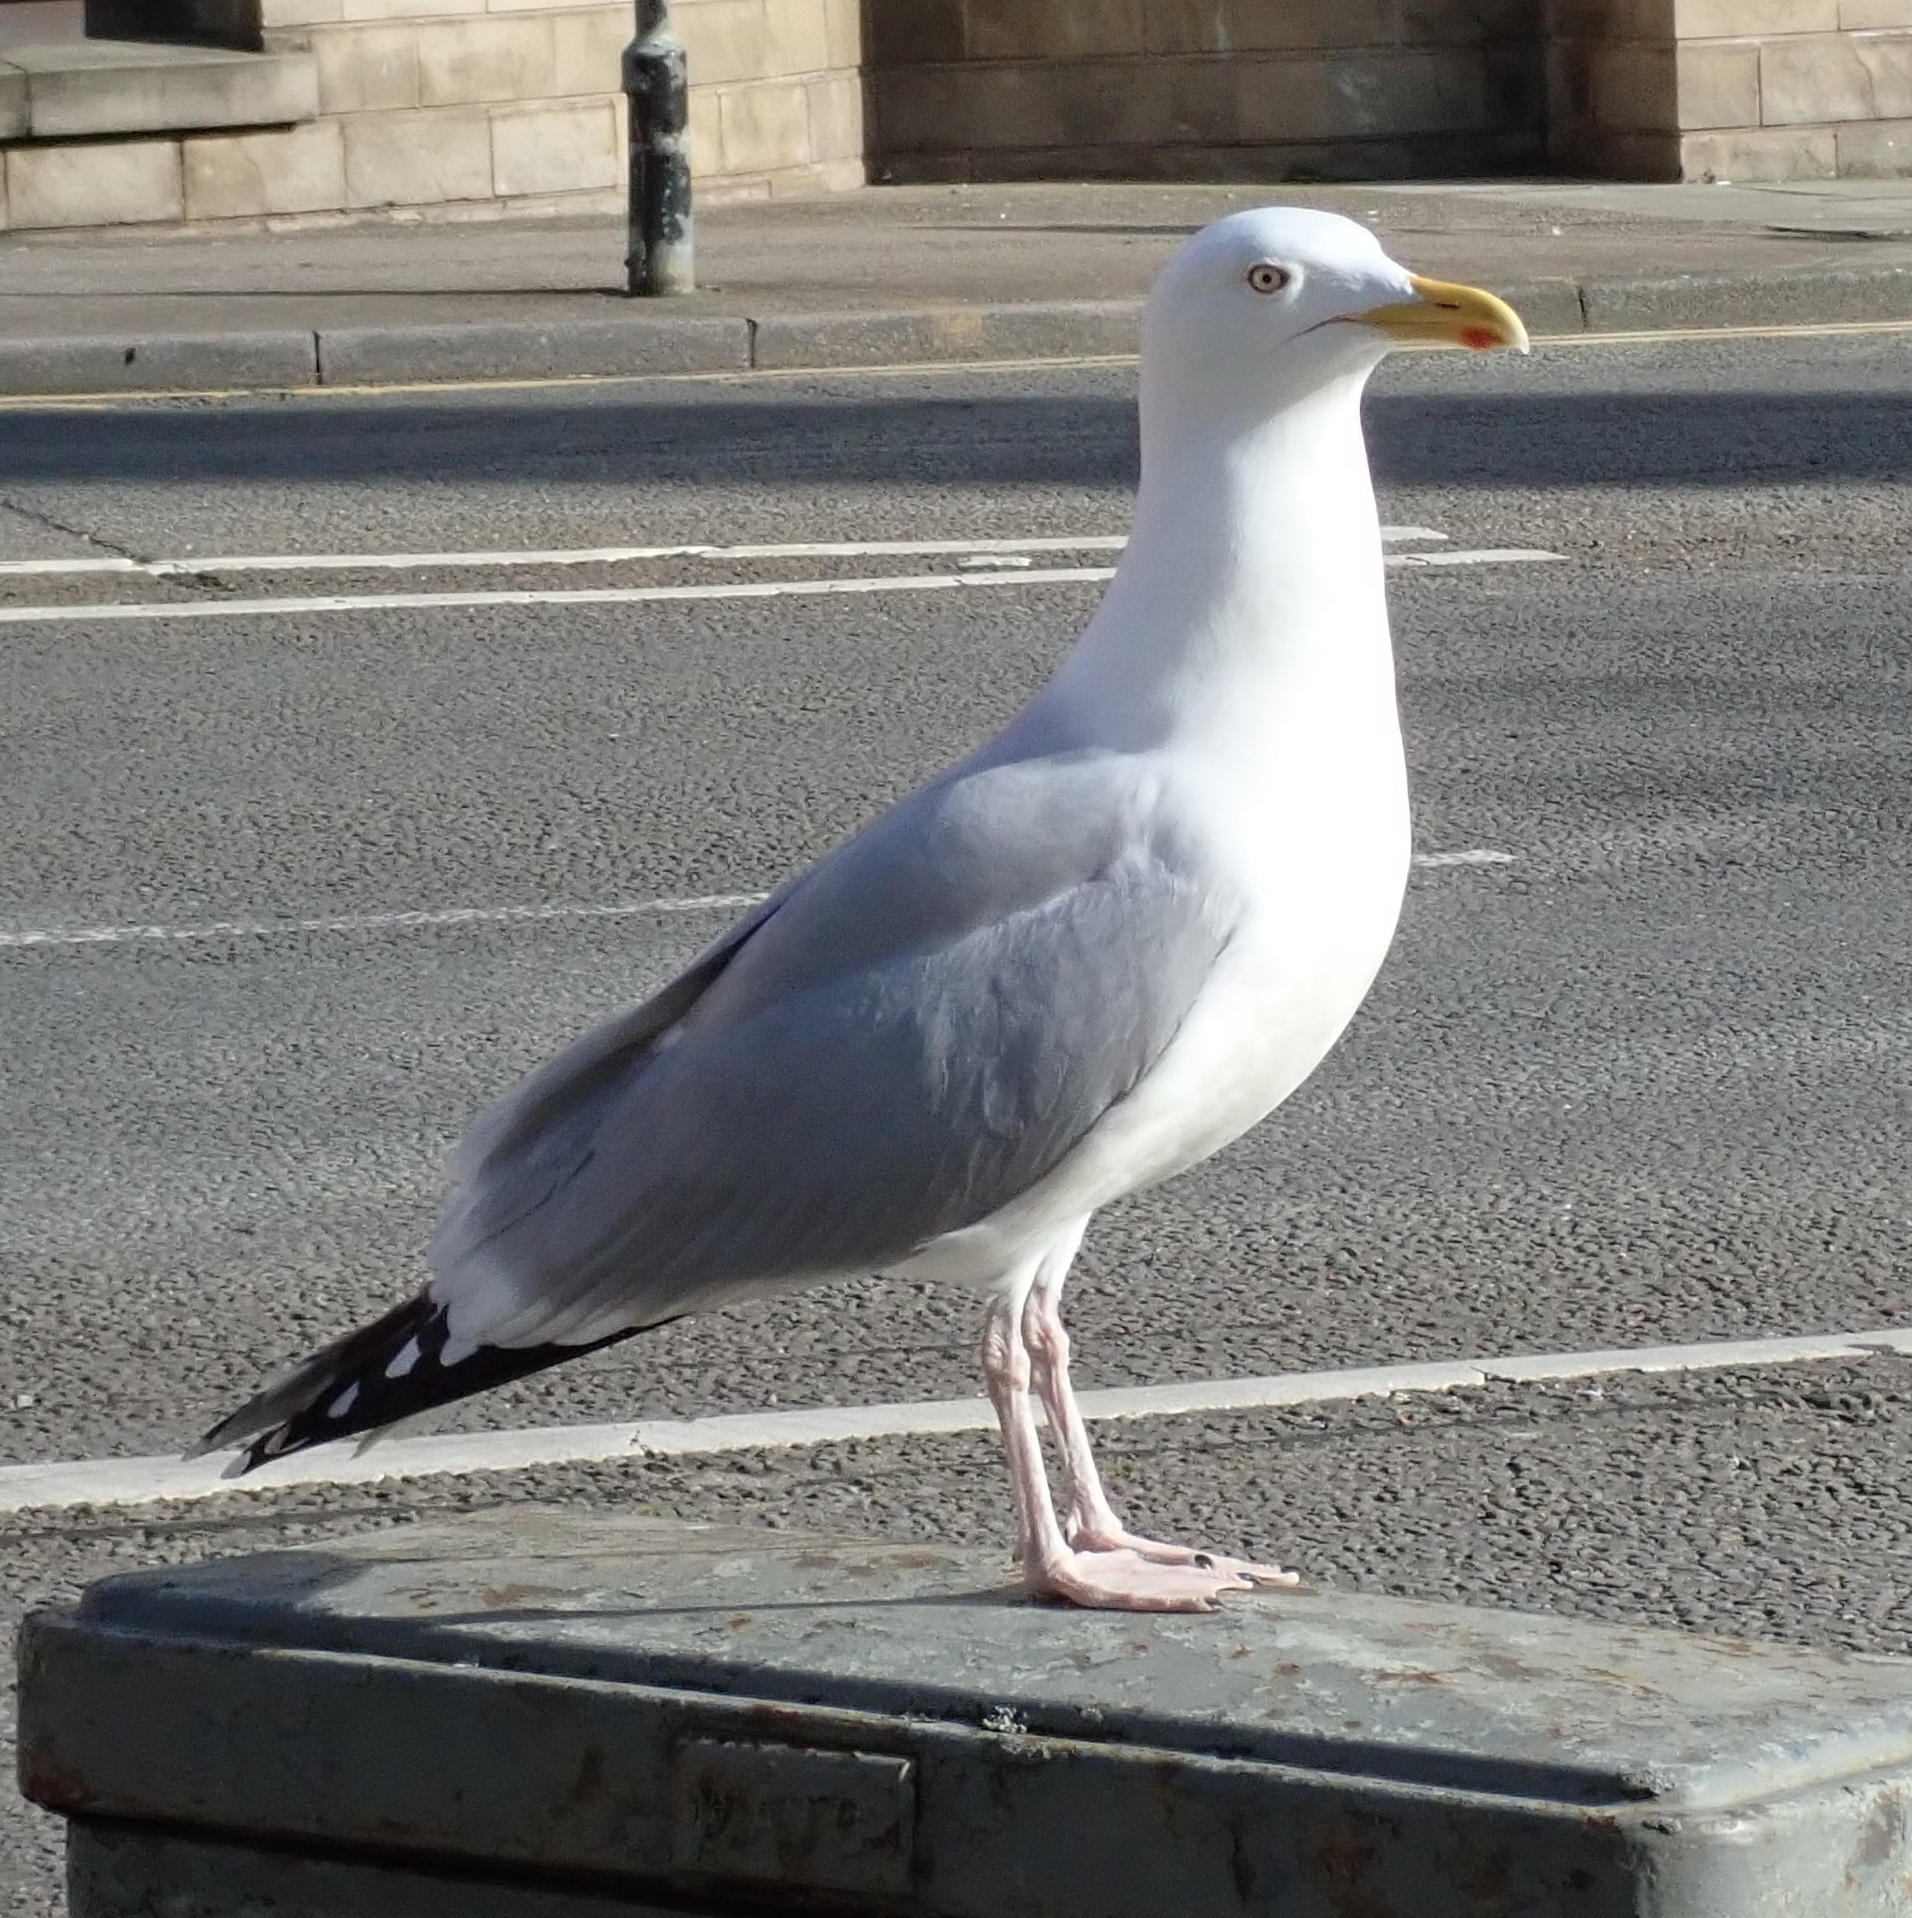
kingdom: Animalia
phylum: Chordata
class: Aves
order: Charadriiformes
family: Laridae
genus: Larus
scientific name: Larus argentatus
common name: Herring gull
